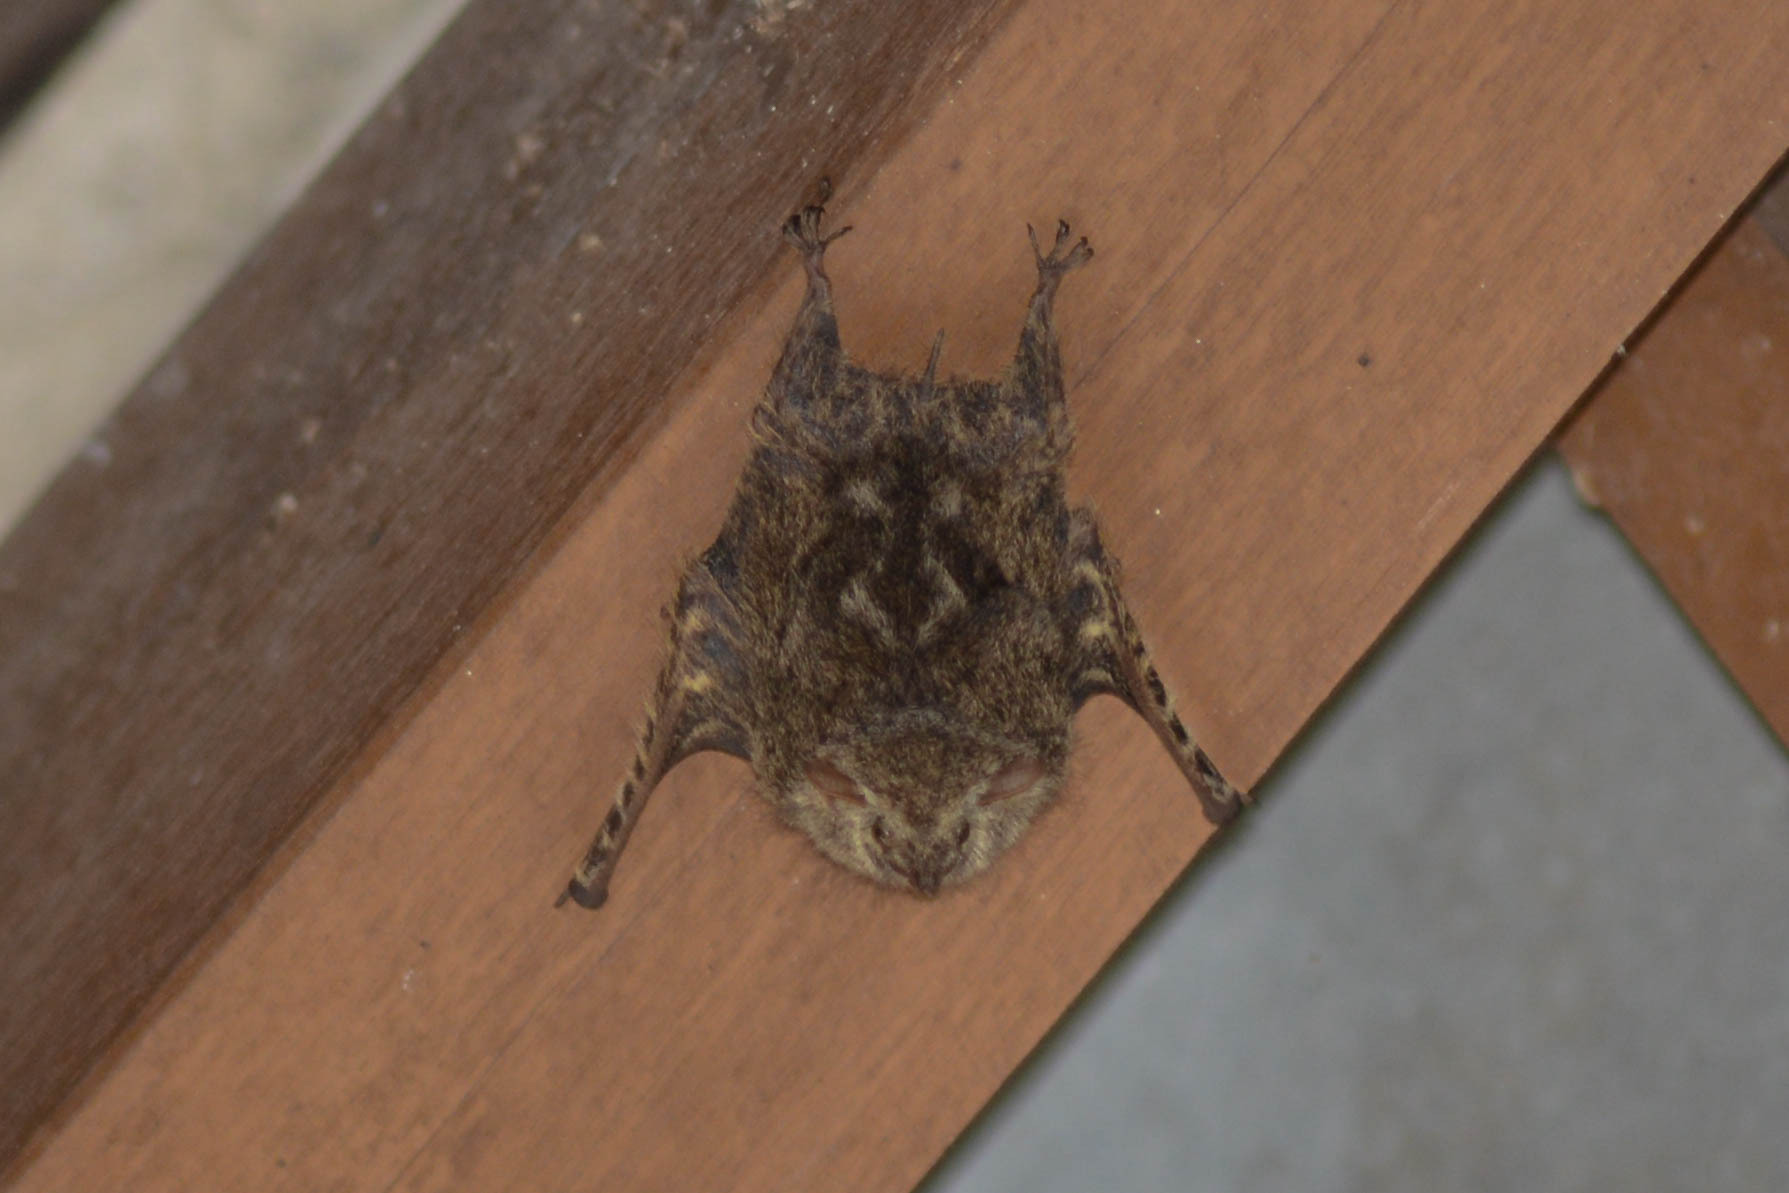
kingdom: Animalia
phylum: Chordata
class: Mammalia
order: Chiroptera
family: Emballonuridae
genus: Rhynchonycteris
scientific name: Rhynchonycteris naso
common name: Proboscis bat
